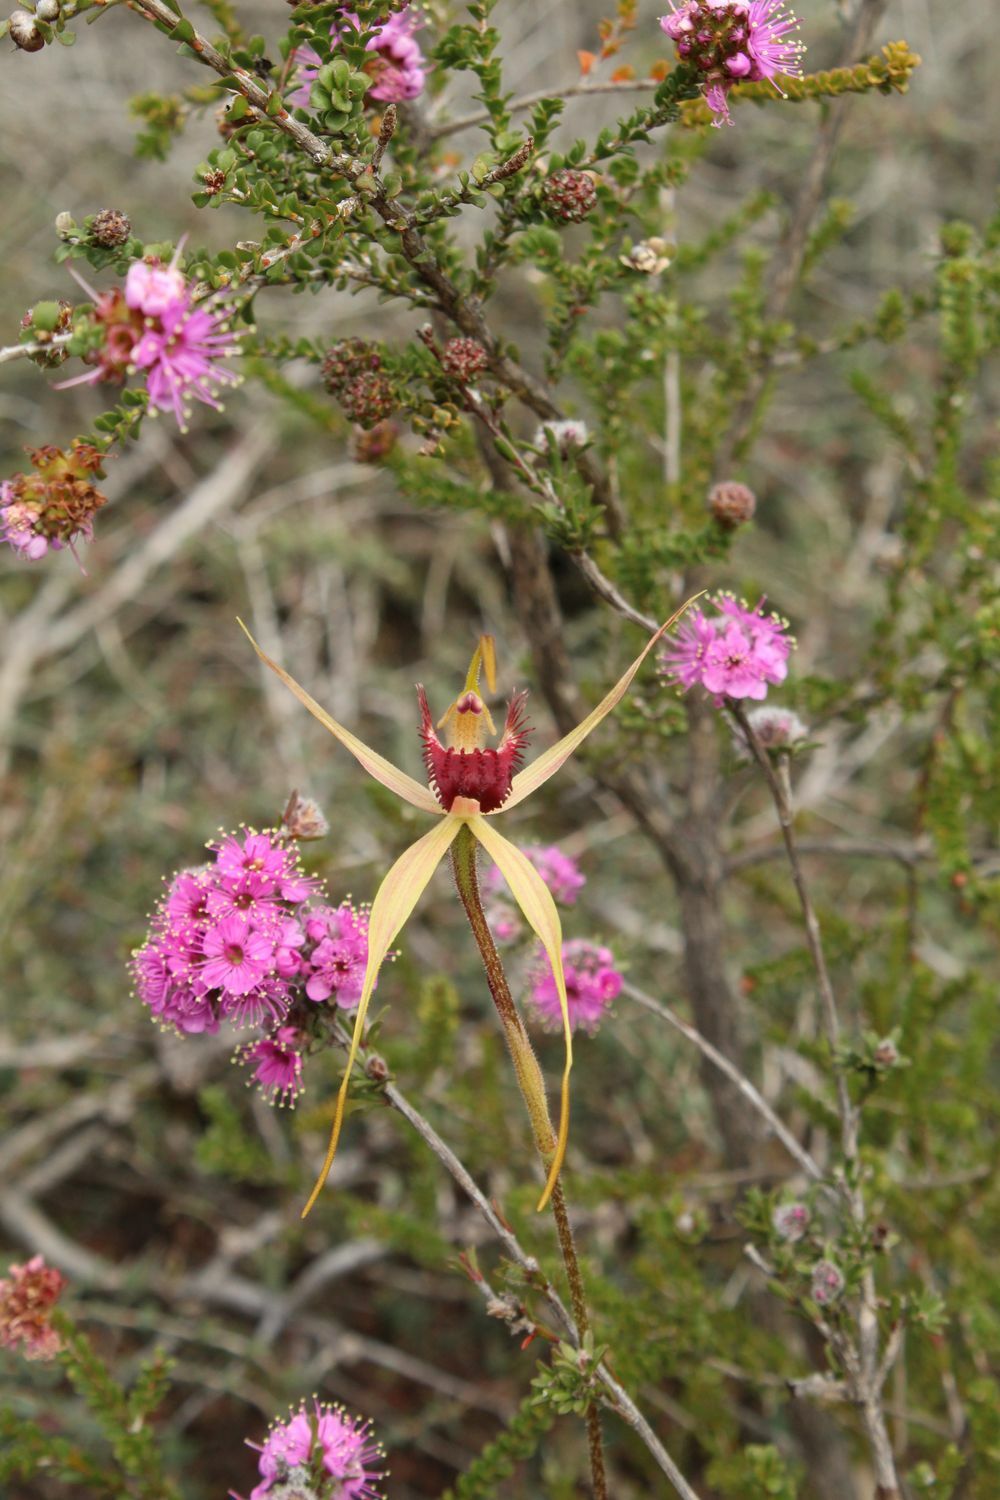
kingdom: Plantae
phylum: Tracheophyta
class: Liliopsida
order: Asparagales
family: Orchidaceae
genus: Caladenia
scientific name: Caladenia pectinata
